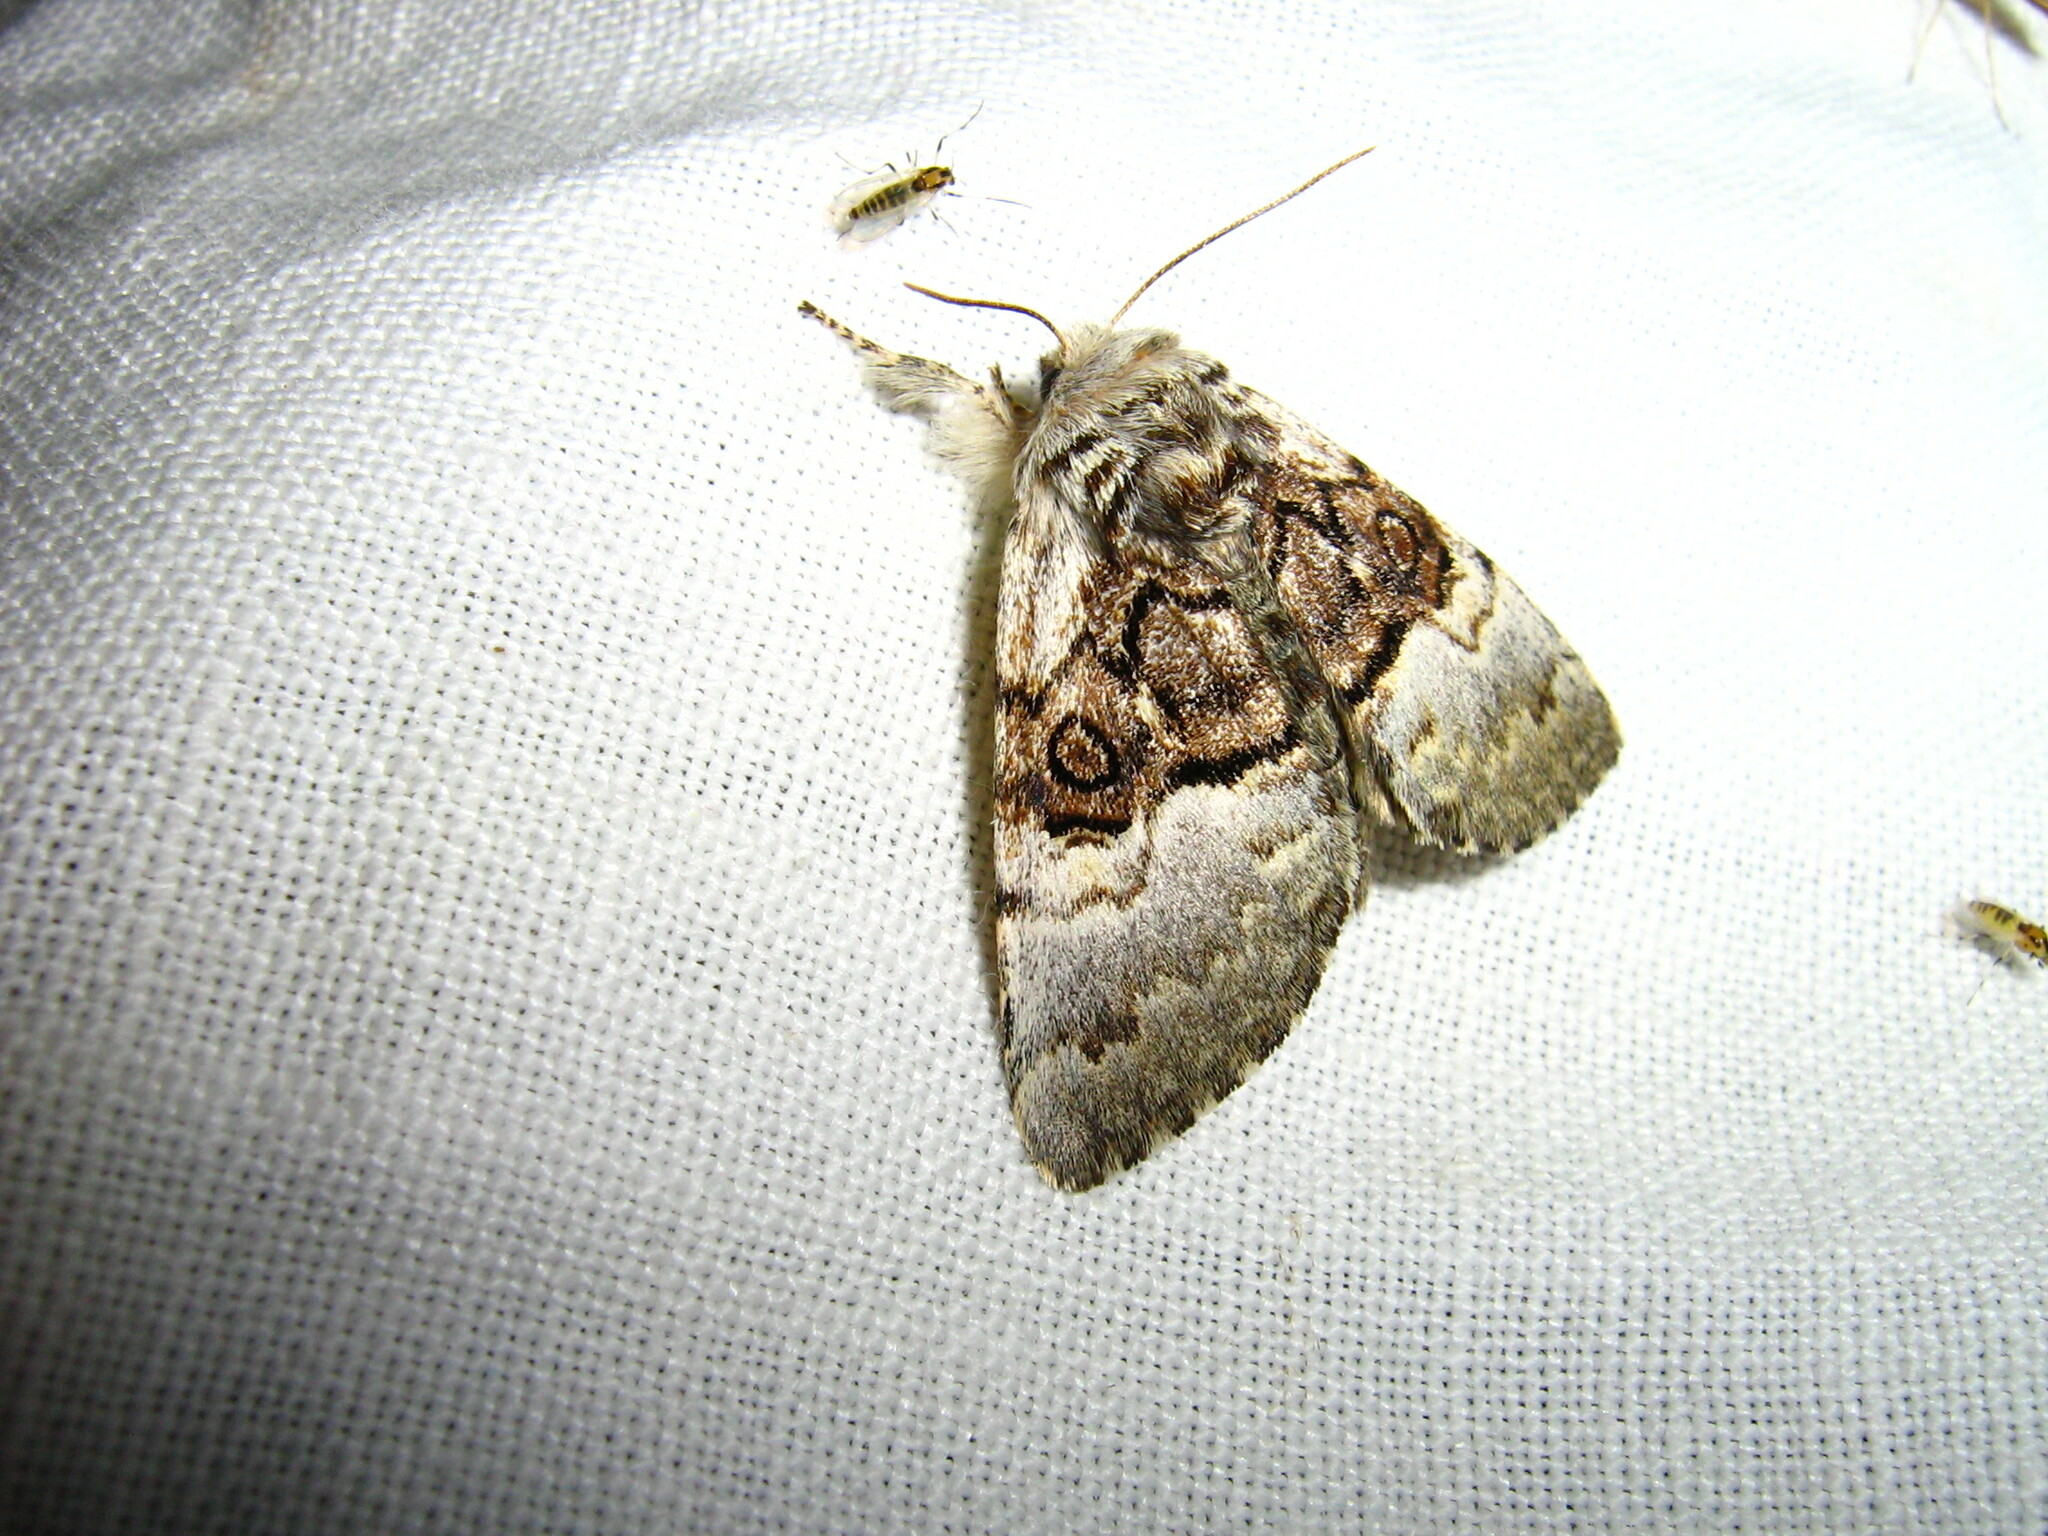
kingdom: Animalia
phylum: Arthropoda
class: Insecta
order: Lepidoptera
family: Noctuidae
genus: Colocasia
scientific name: Colocasia coryli
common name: Nut-tree tussock
